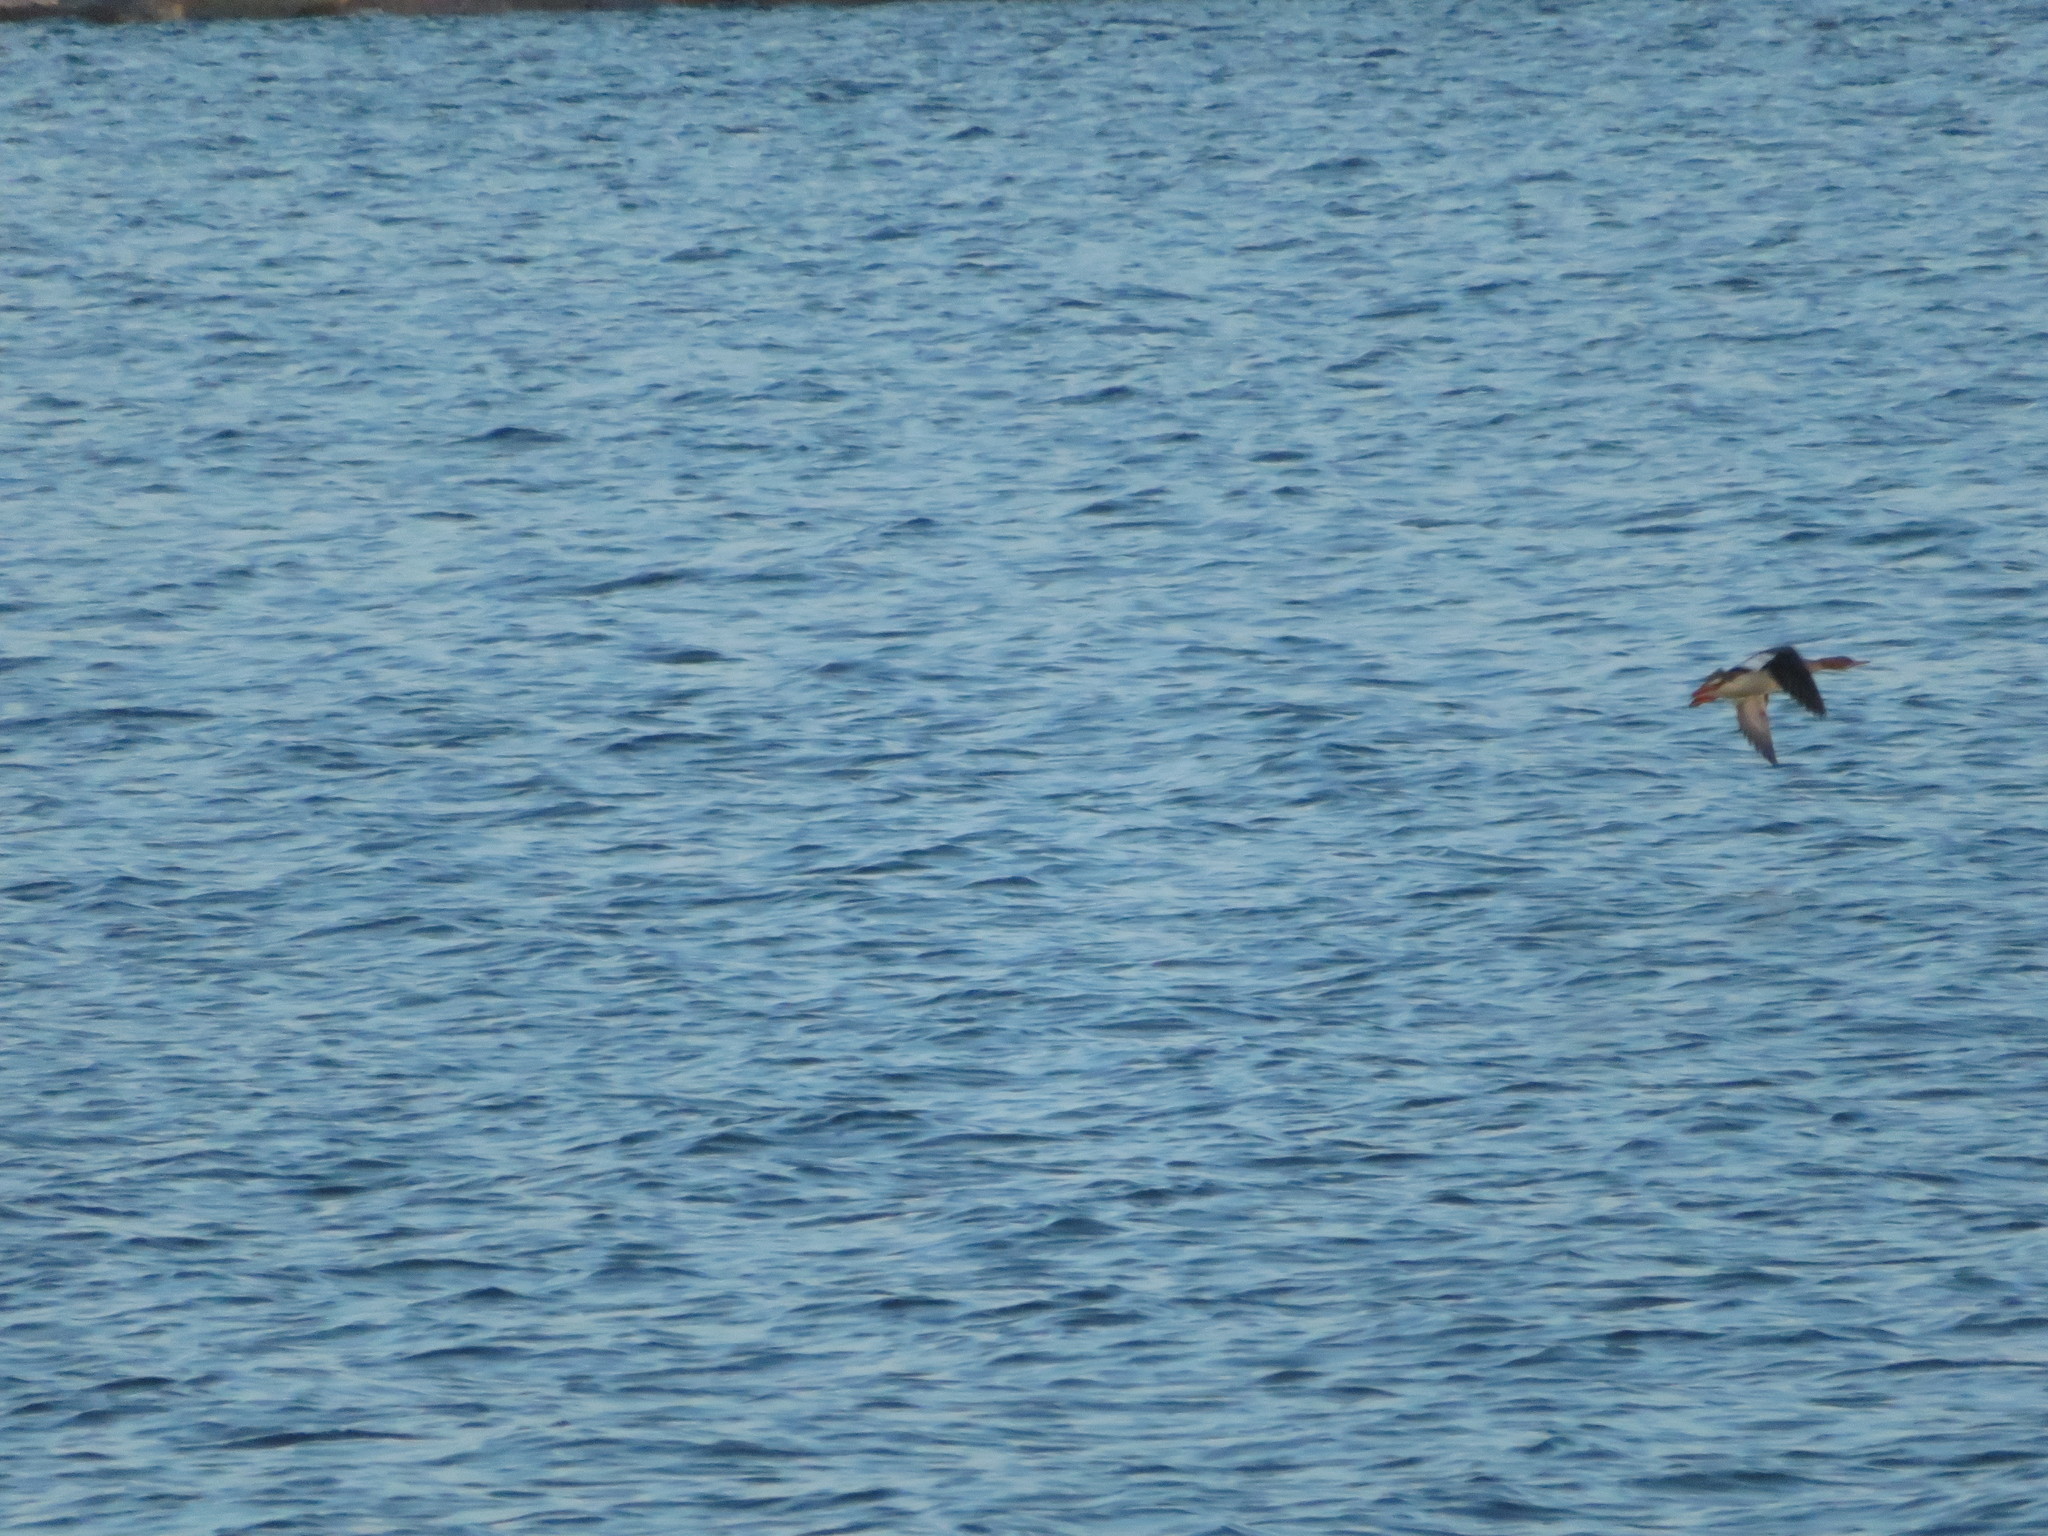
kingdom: Animalia
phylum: Chordata
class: Aves
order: Anseriformes
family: Anatidae
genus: Mergus
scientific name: Mergus serrator
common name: Red-breasted merganser
